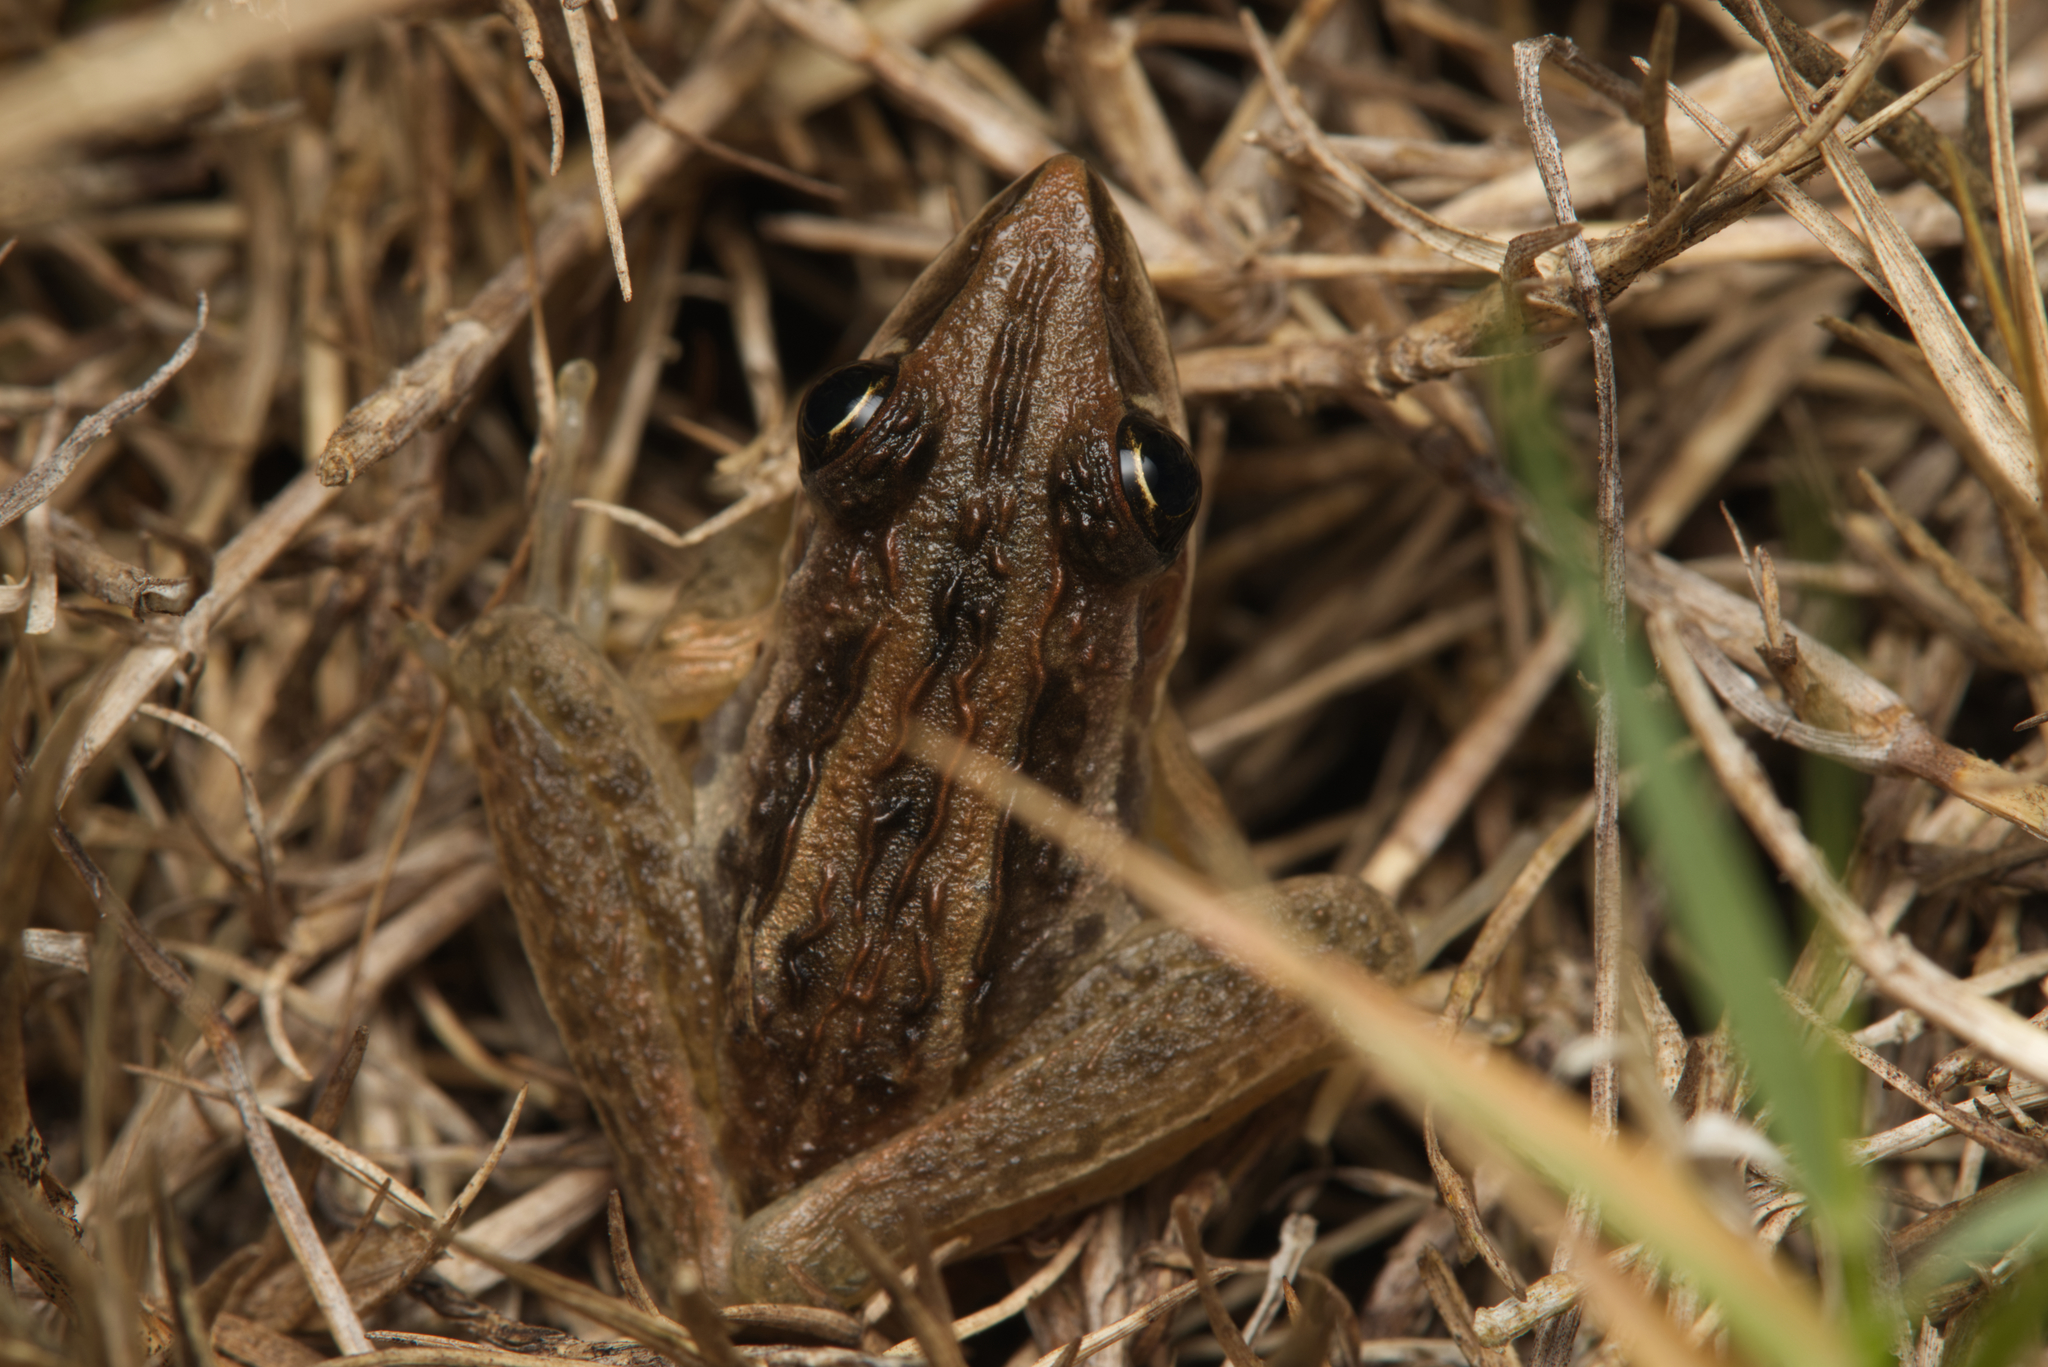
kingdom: Animalia
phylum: Chordata
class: Amphibia
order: Anura
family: Pelodryadidae
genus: Litoria
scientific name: Litoria nasuta
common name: Rocket frog
